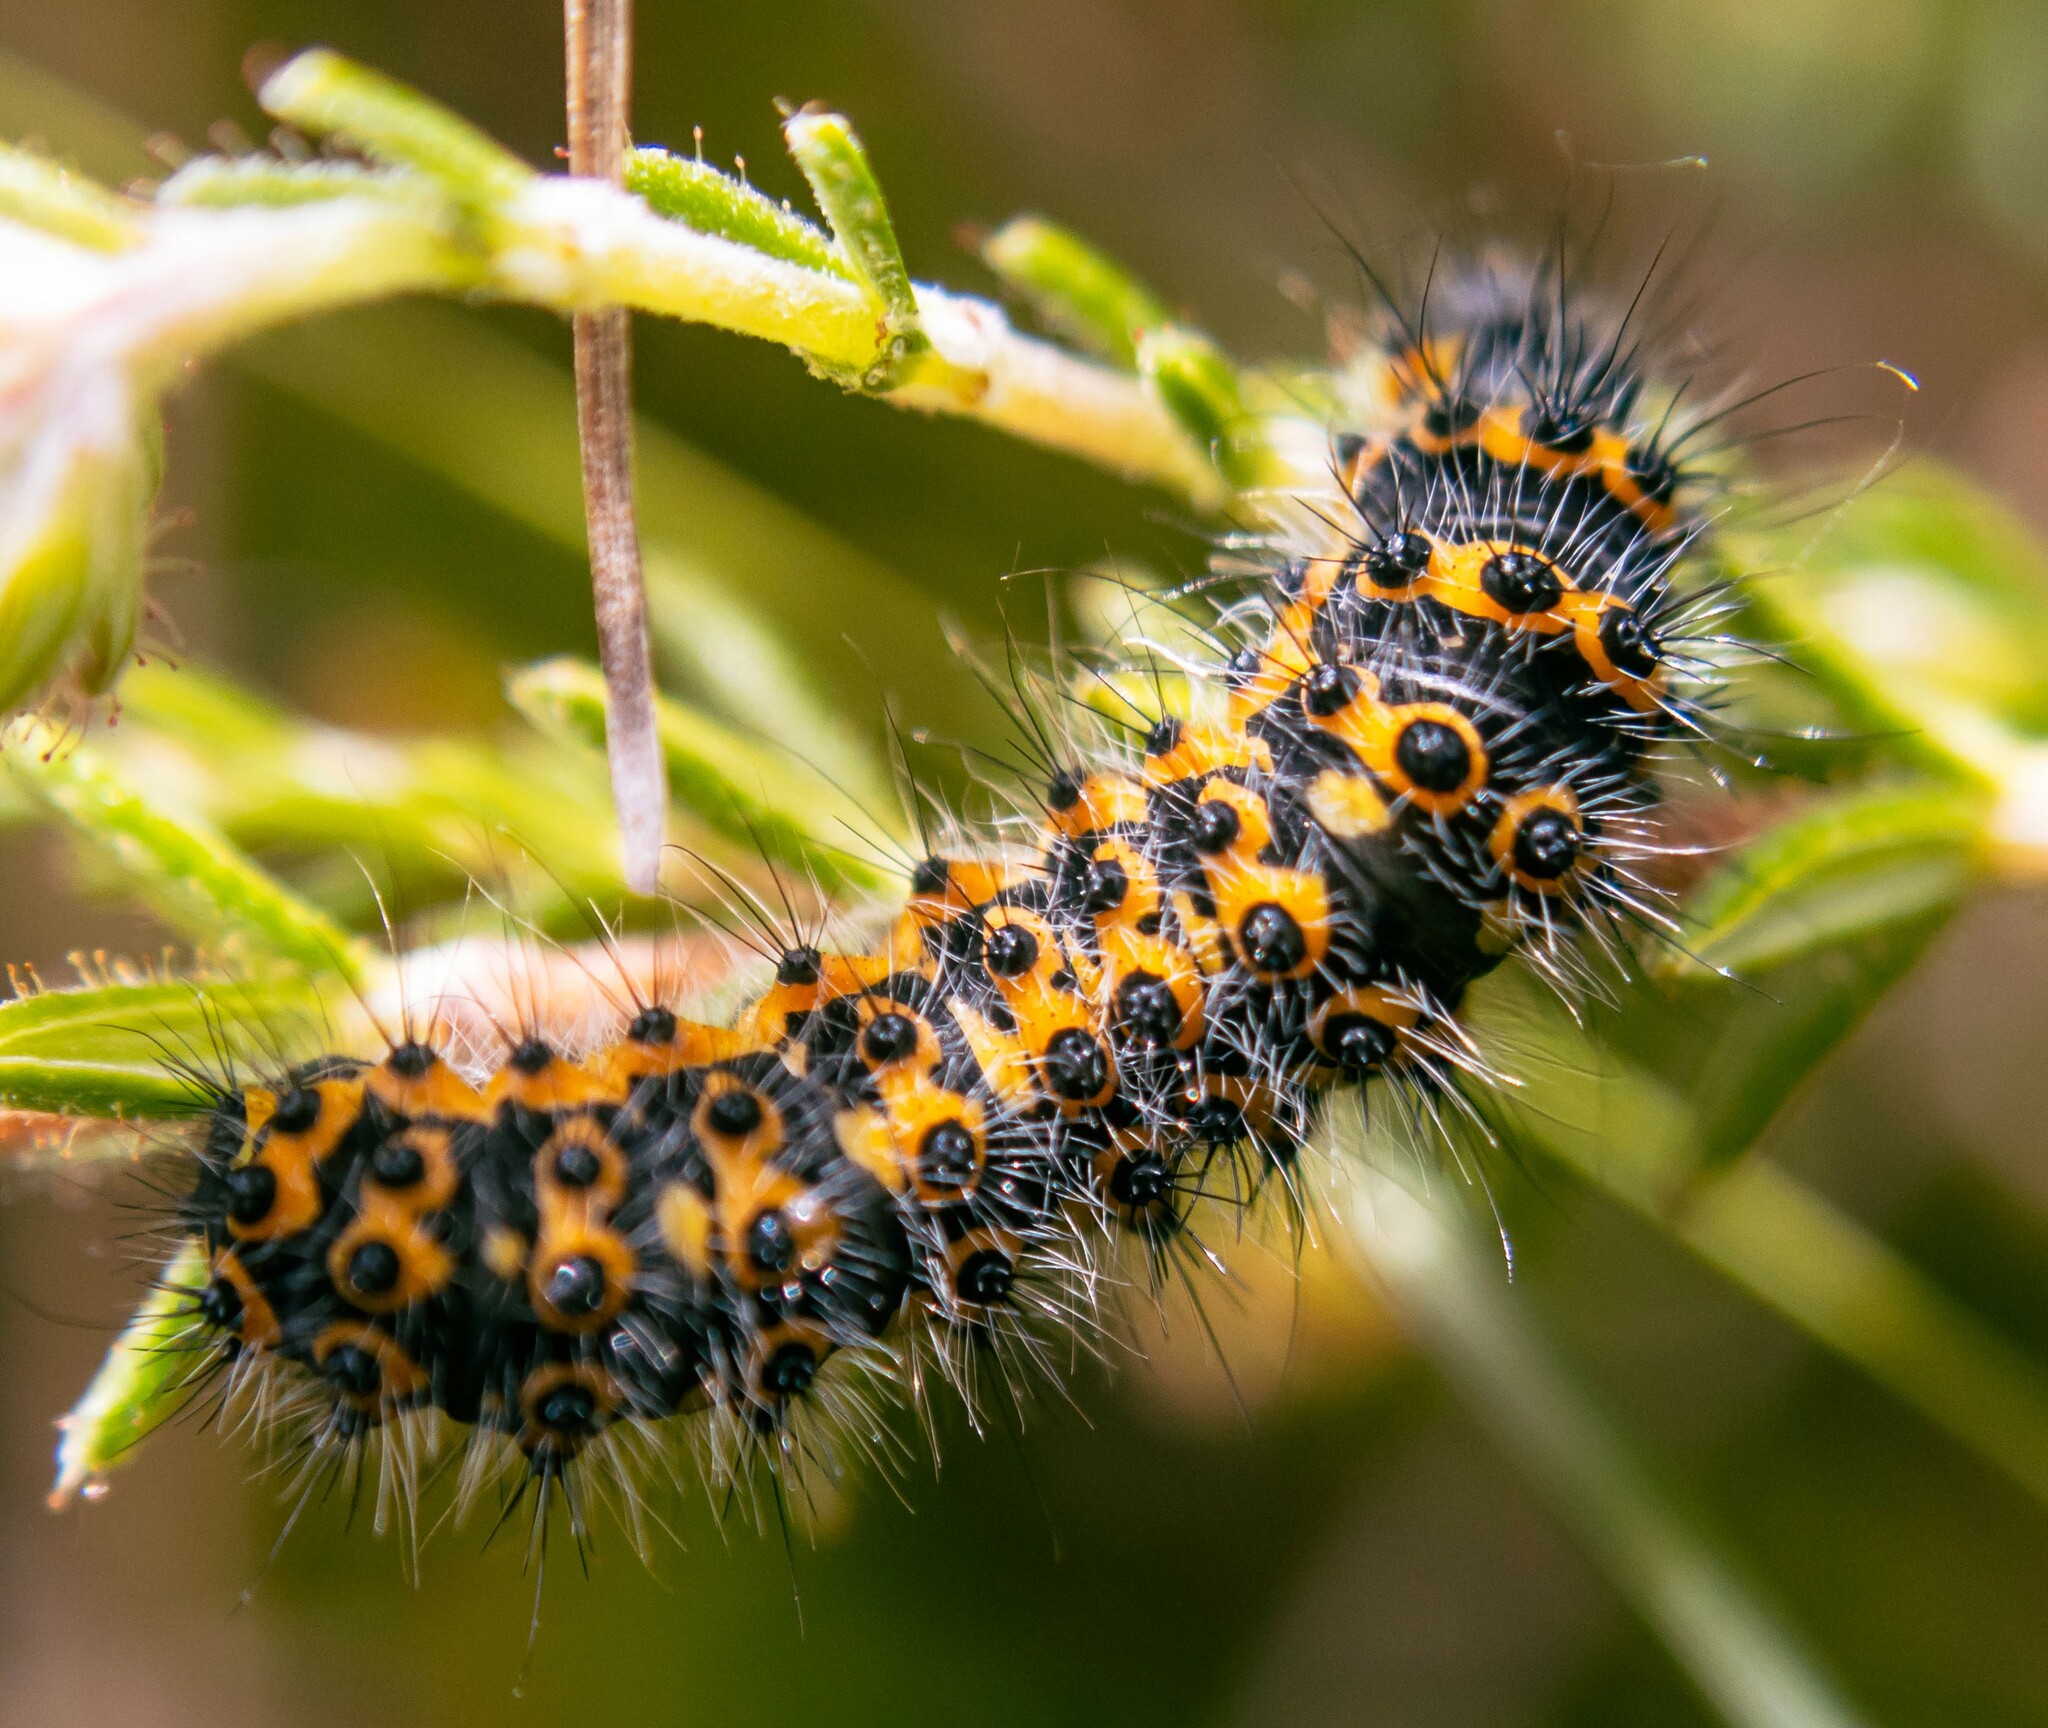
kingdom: Animalia
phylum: Arthropoda
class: Insecta
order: Lepidoptera
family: Saturniidae
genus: Saturnia
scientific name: Saturnia pavonia
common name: Emperor moth
